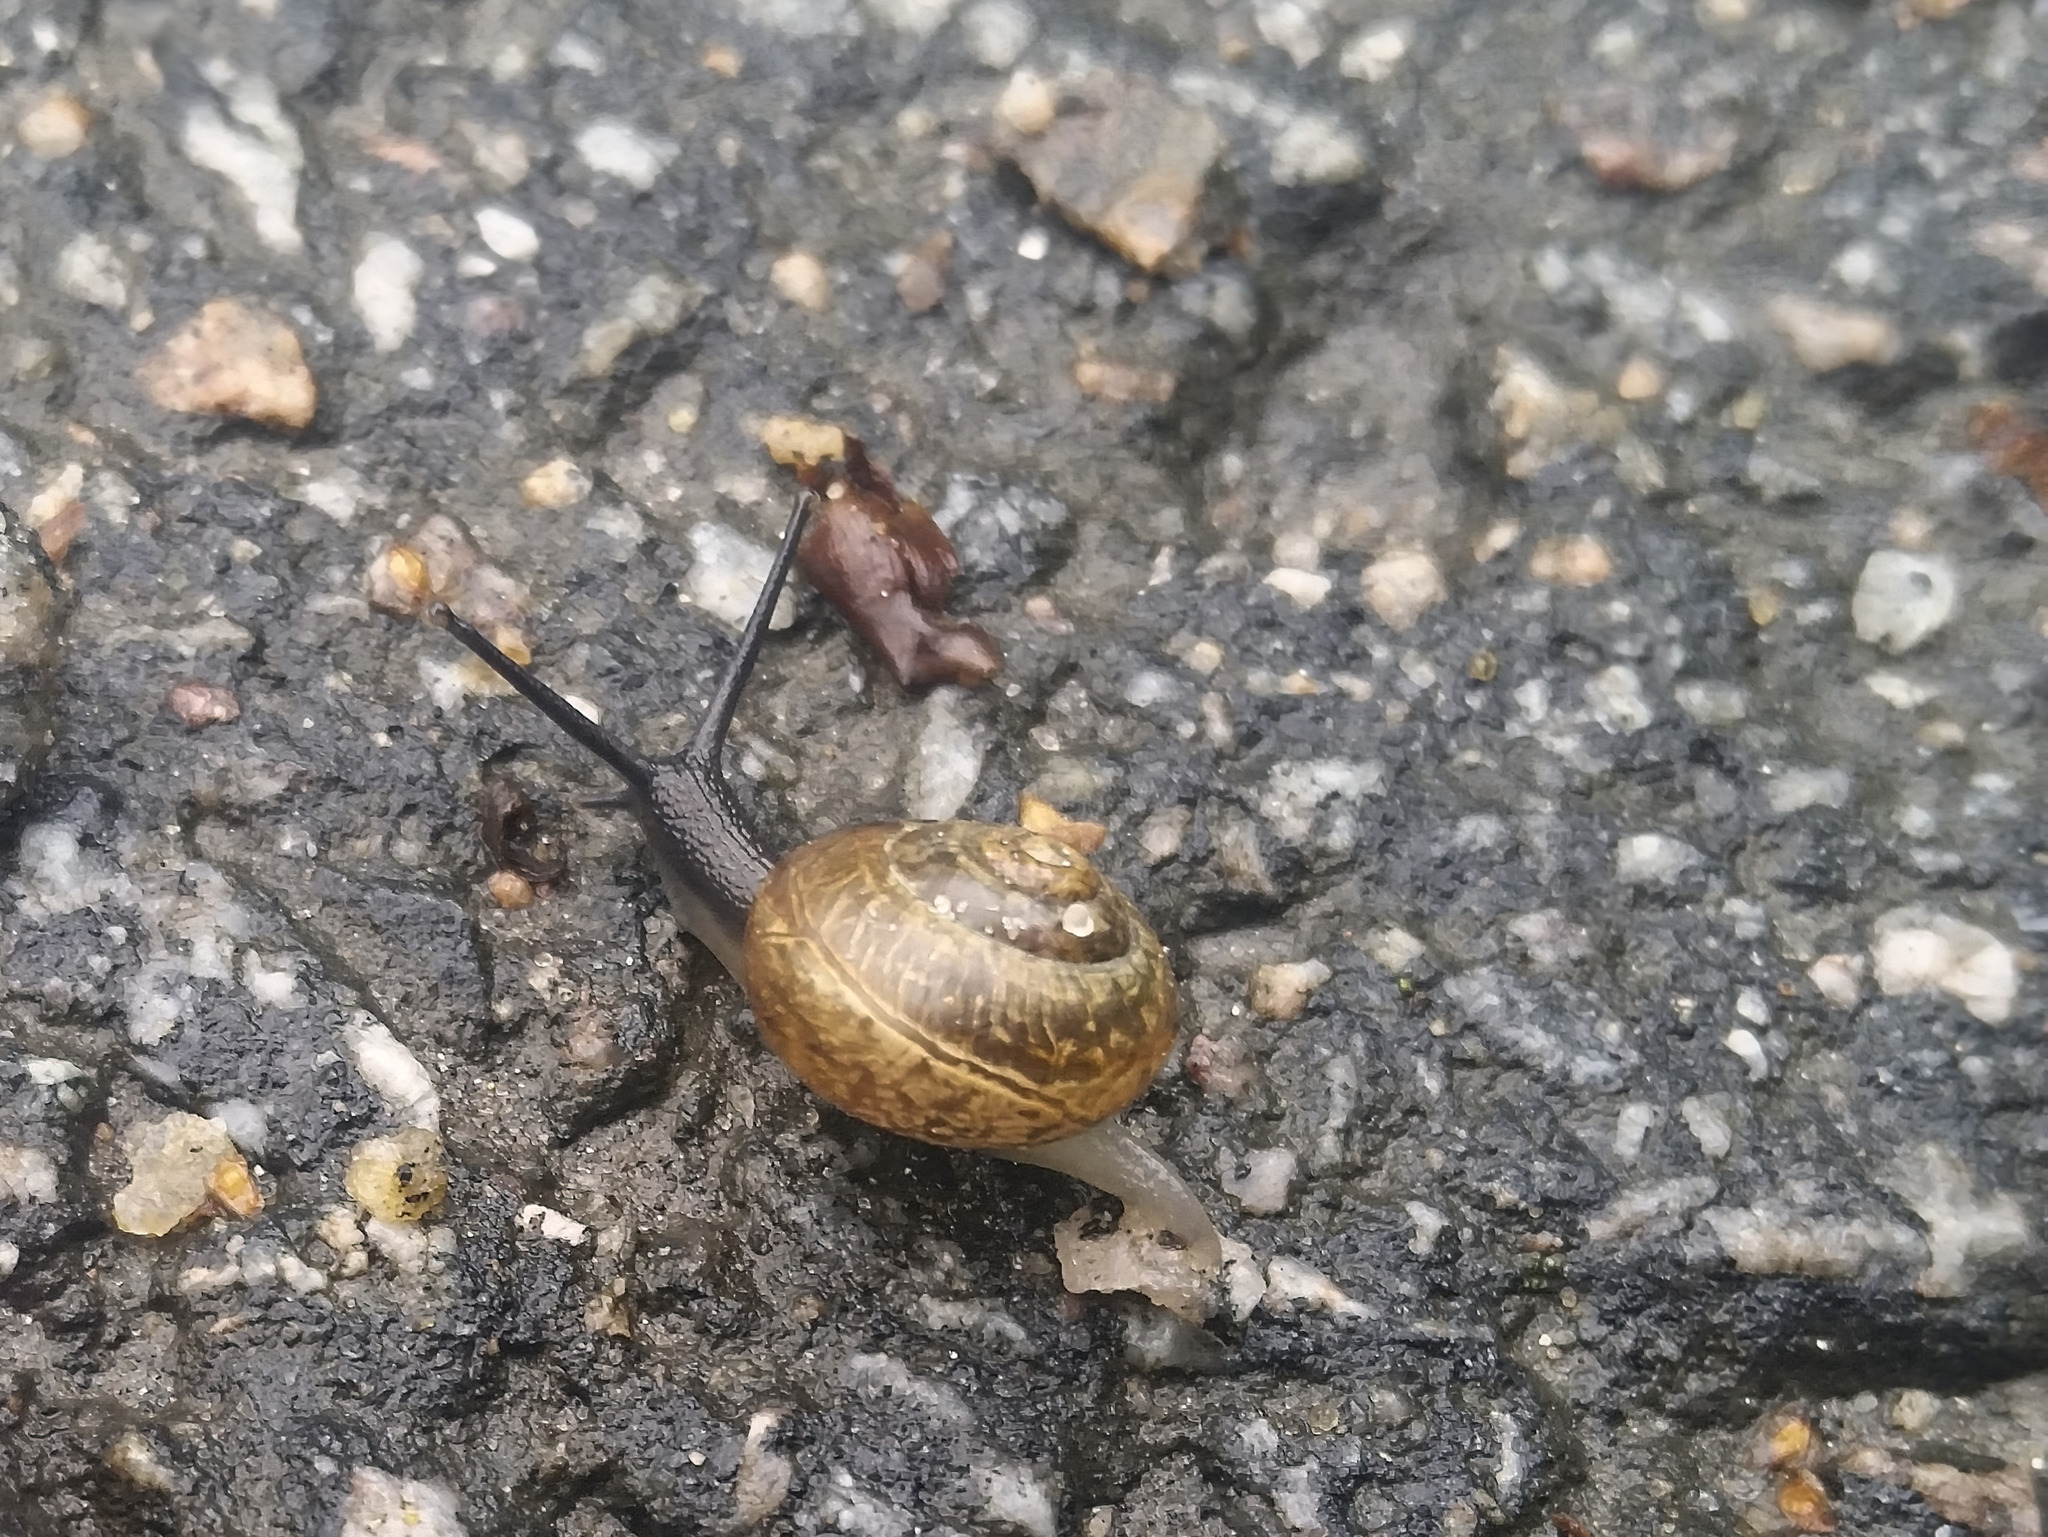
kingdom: Animalia
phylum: Mollusca
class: Gastropoda
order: Stylommatophora
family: Helicidae
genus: Arianta
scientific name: Arianta arbustorum
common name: Copse snail
